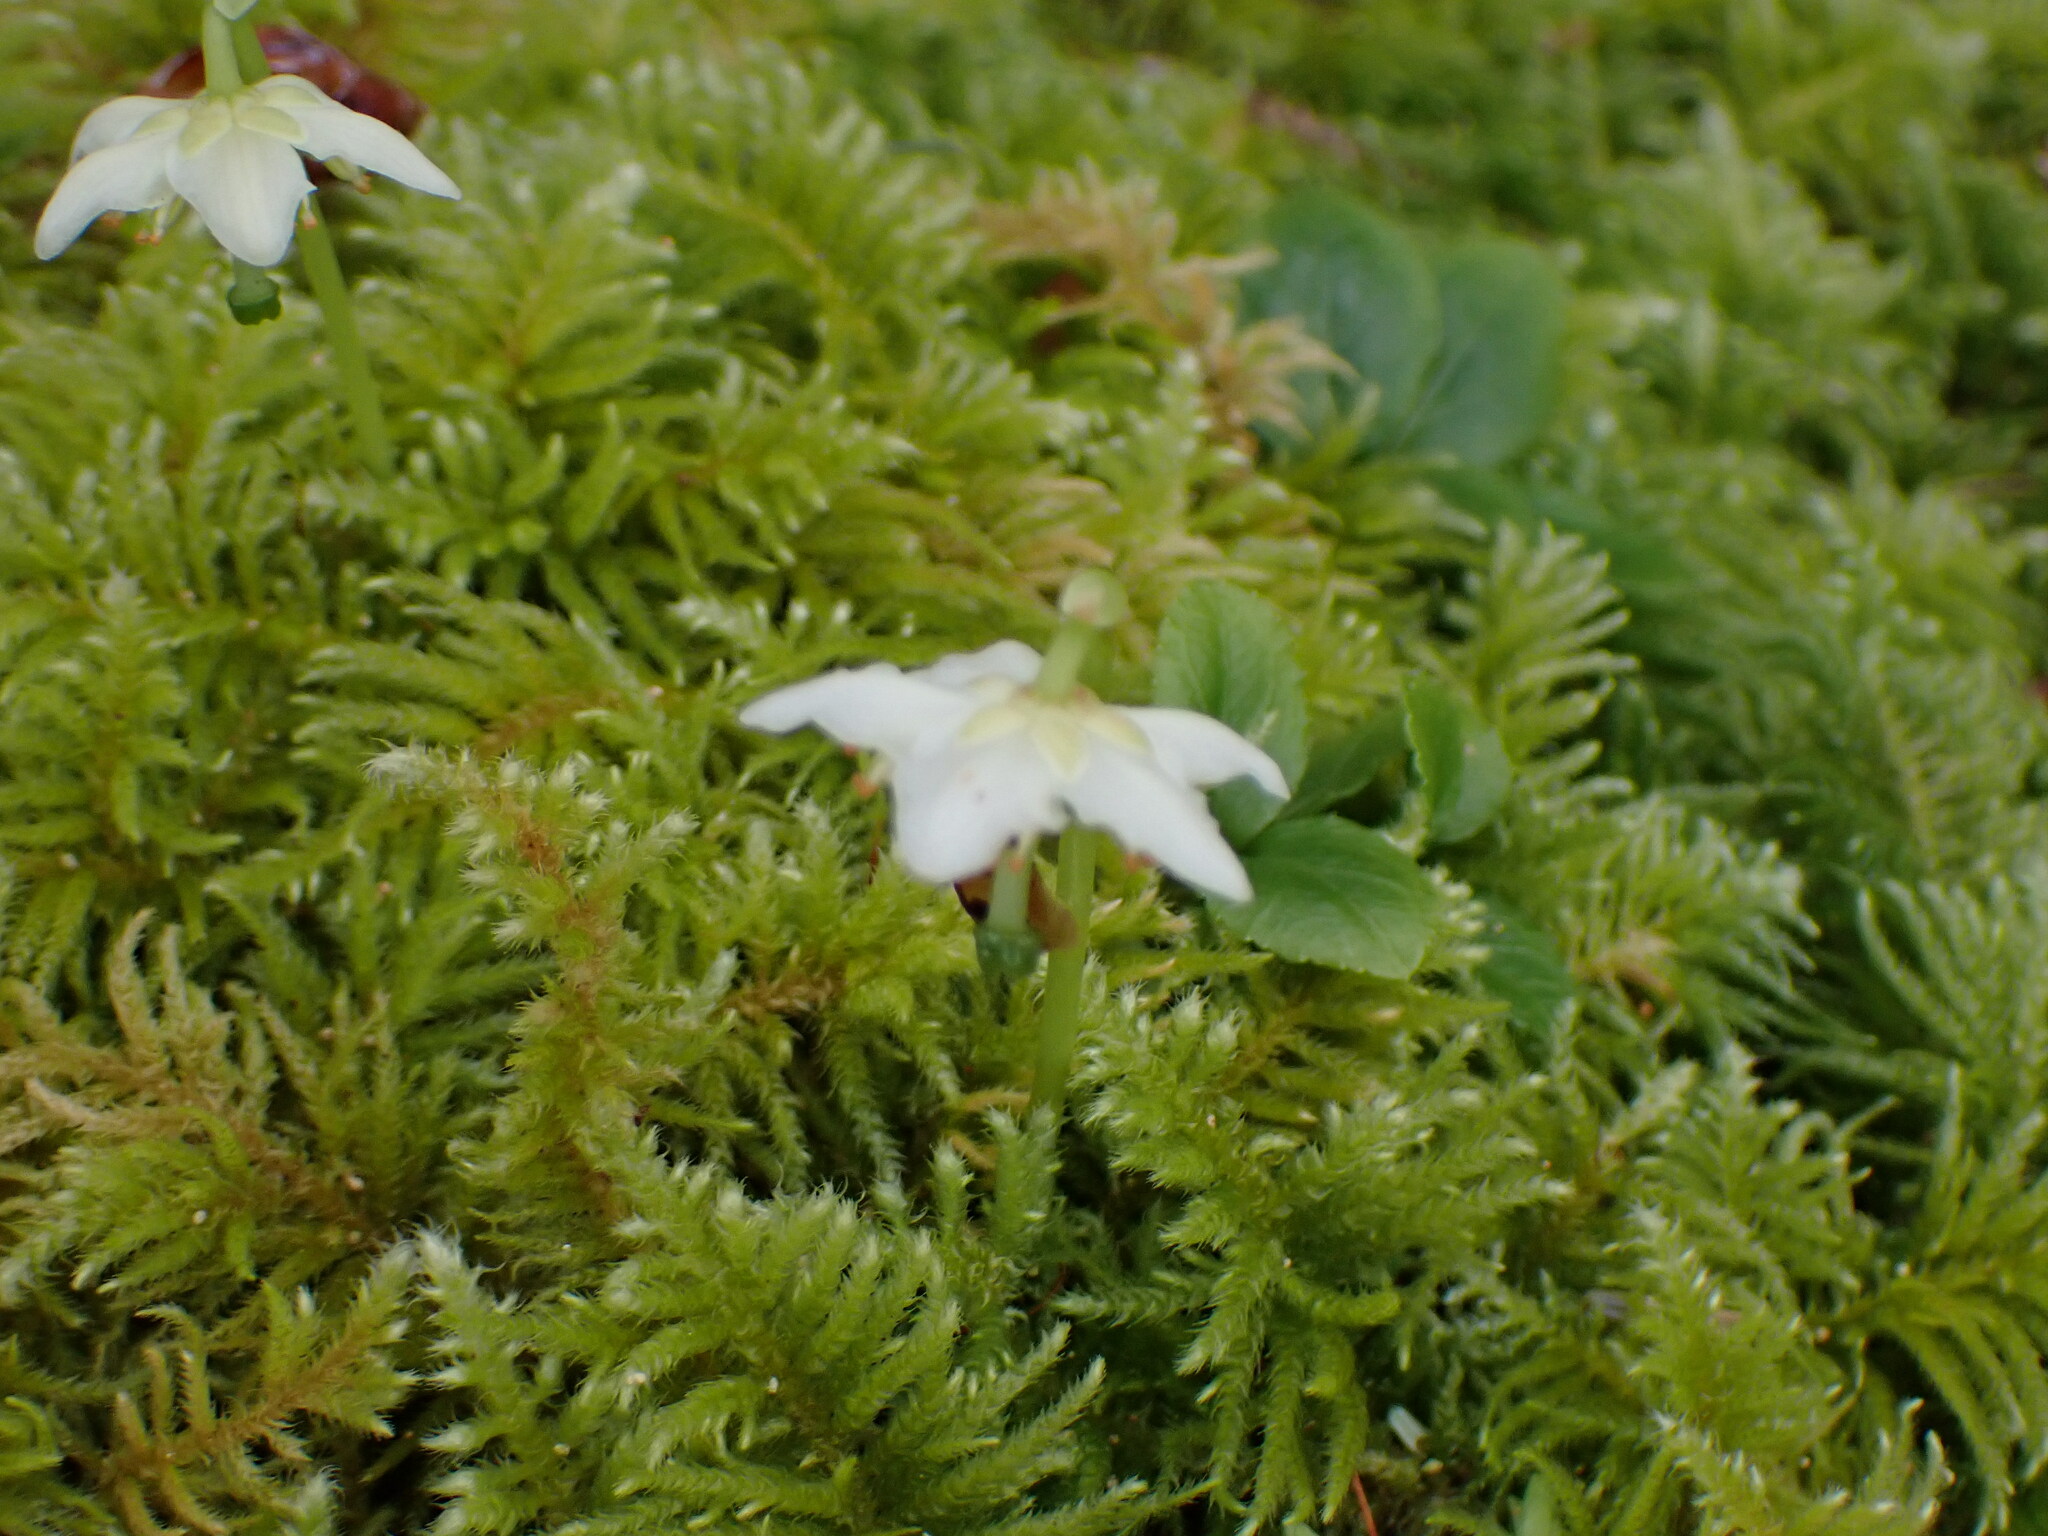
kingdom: Plantae
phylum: Tracheophyta
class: Magnoliopsida
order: Ericales
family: Ericaceae
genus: Moneses
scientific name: Moneses uniflora
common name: One-flowered wintergreen
